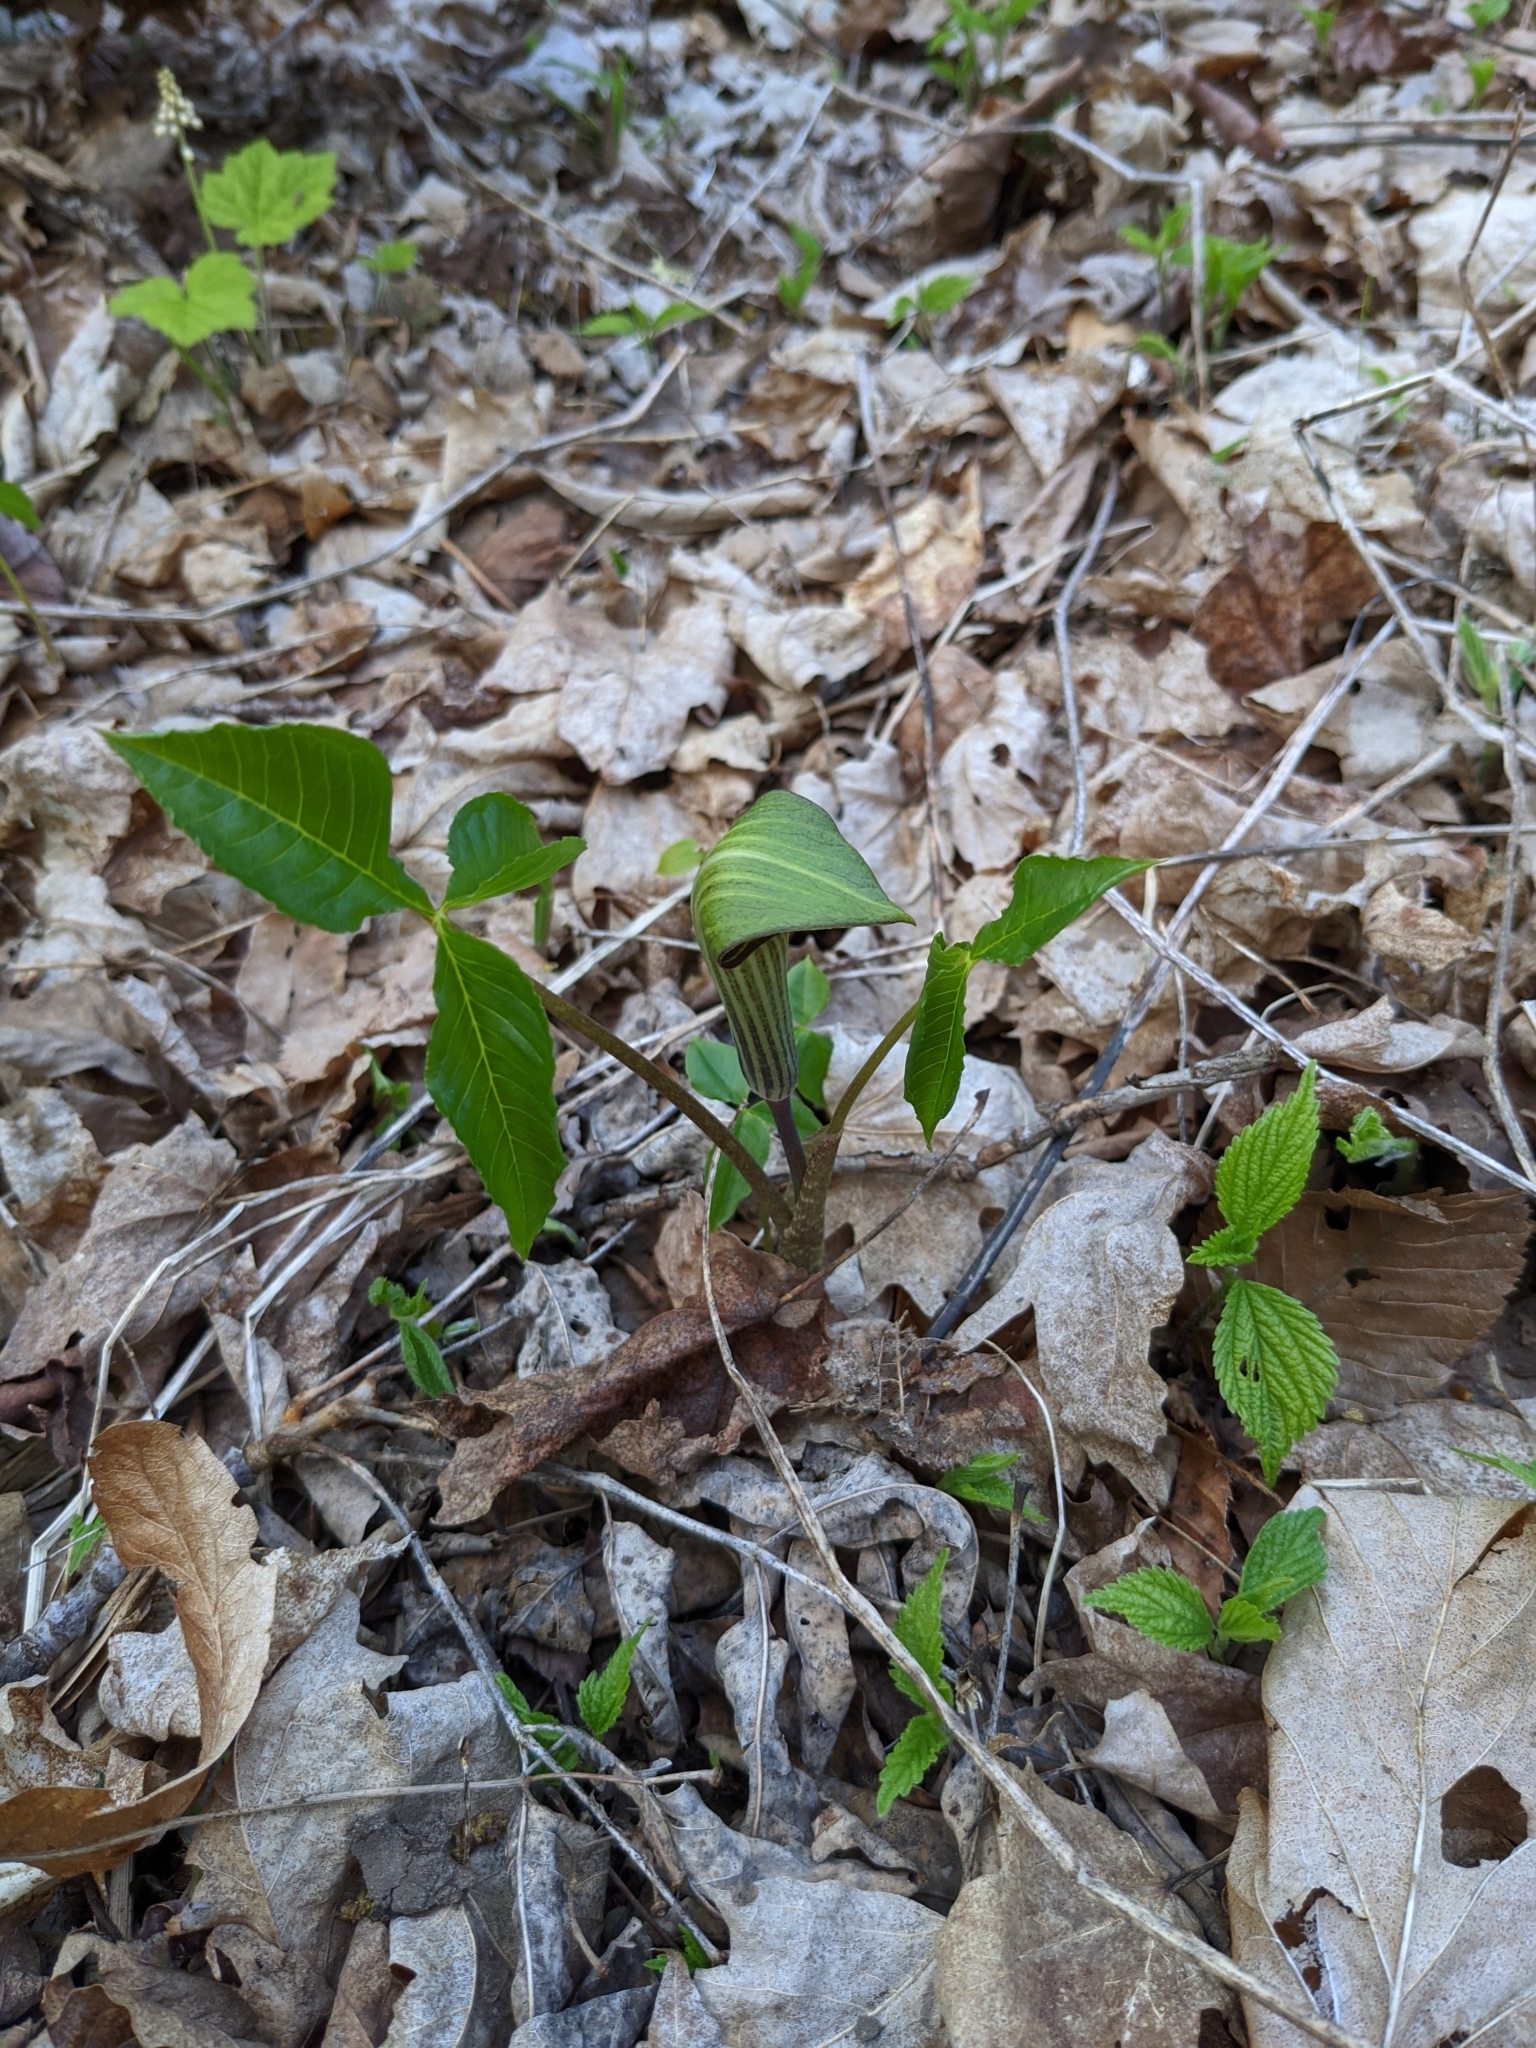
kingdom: Plantae
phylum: Tracheophyta
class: Liliopsida
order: Alismatales
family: Araceae
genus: Arisaema
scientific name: Arisaema triphyllum
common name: Jack-in-the-pulpit
